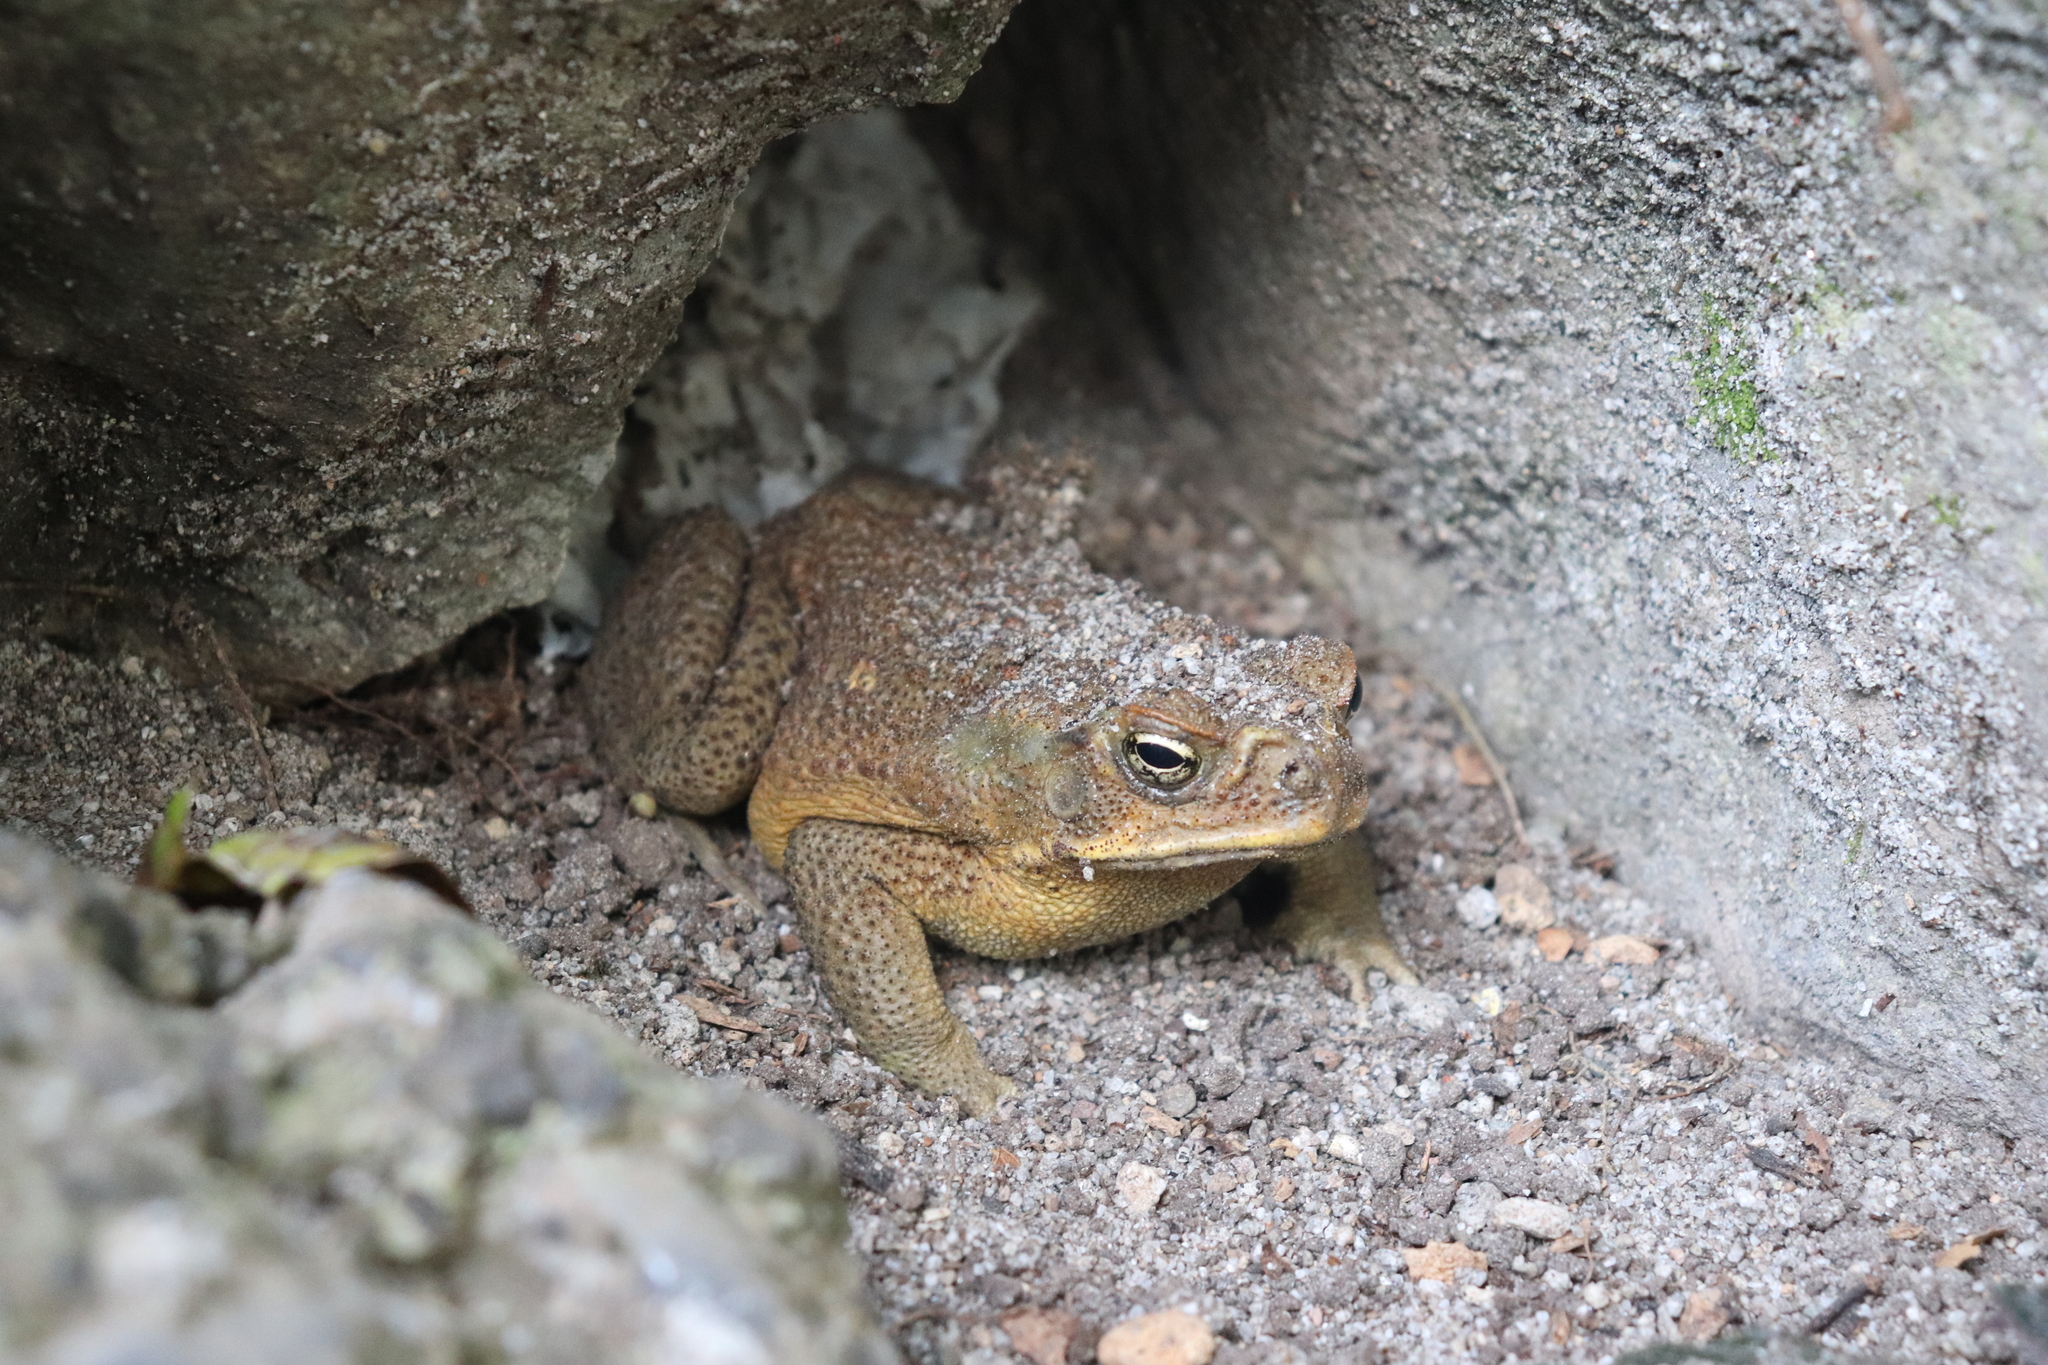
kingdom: Animalia
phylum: Chordata
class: Amphibia
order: Anura
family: Bufonidae
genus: Rhinella
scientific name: Rhinella marina
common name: Cane toad
